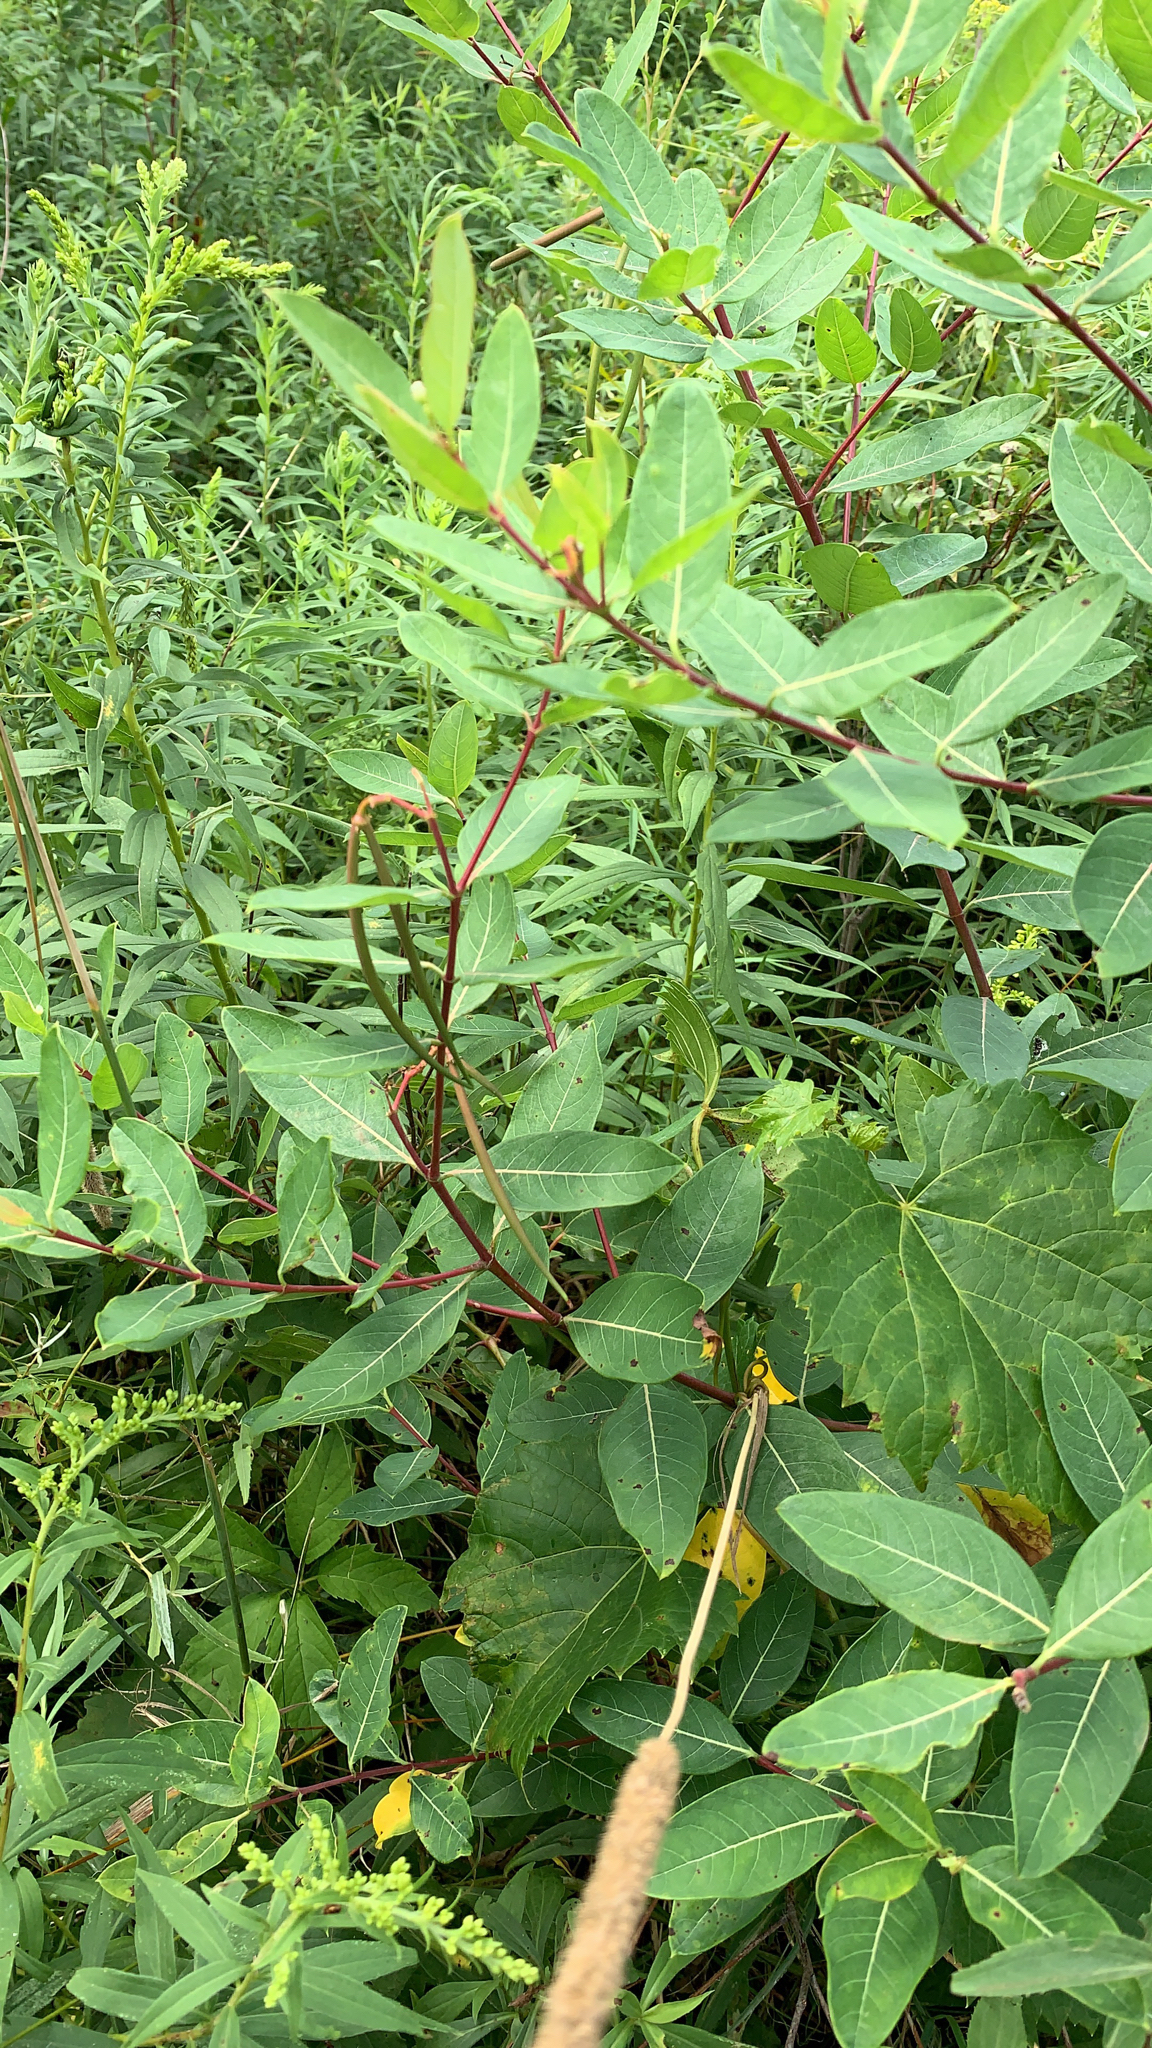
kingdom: Plantae
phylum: Tracheophyta
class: Magnoliopsida
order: Gentianales
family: Apocynaceae
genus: Apocynum
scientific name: Apocynum cannabinum
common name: Hemp dogbane
